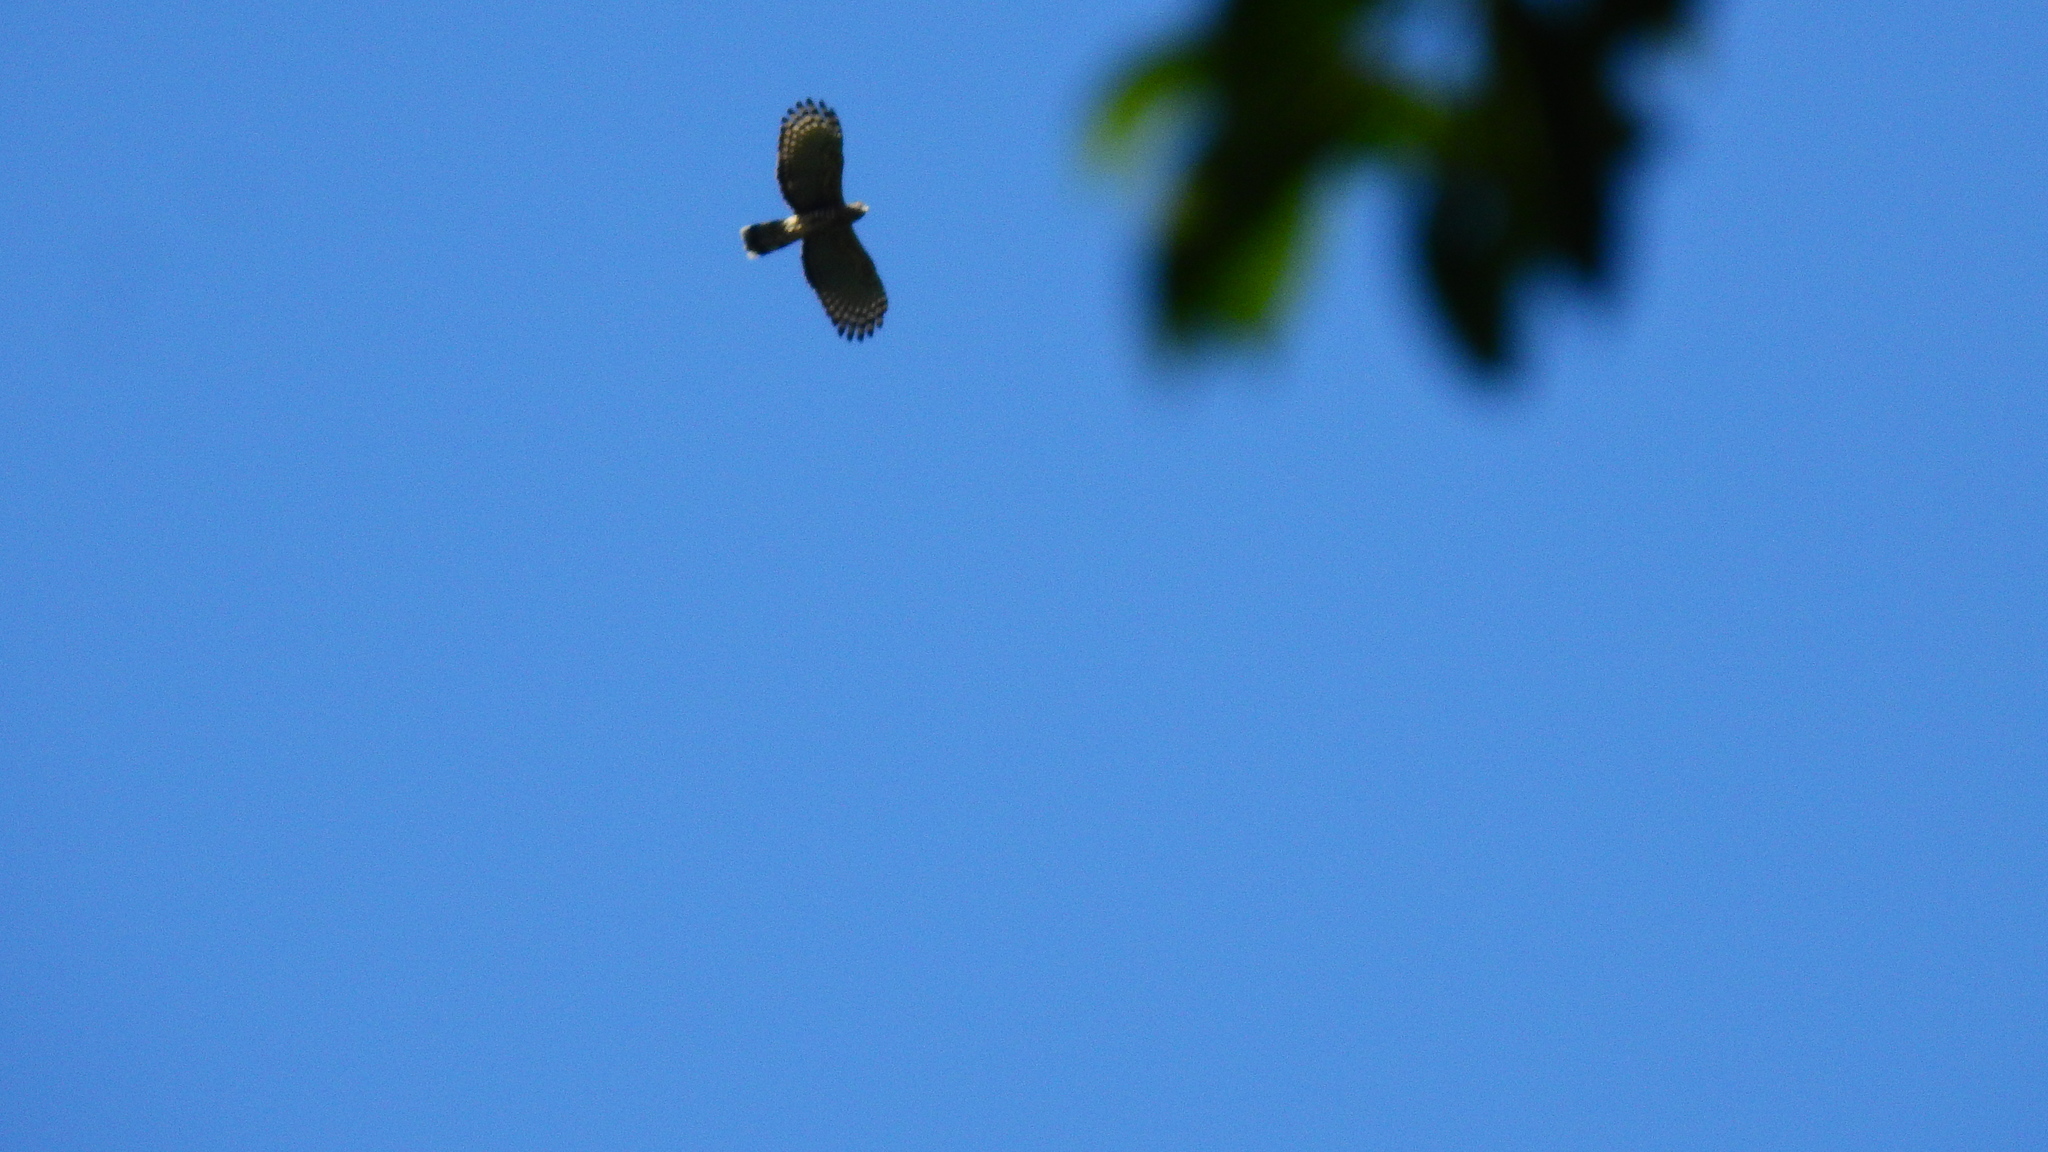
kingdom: Animalia
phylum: Chordata
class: Aves
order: Accipitriformes
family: Accipitridae
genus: Aviceda
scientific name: Aviceda jerdoni
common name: Jerdon's baza
